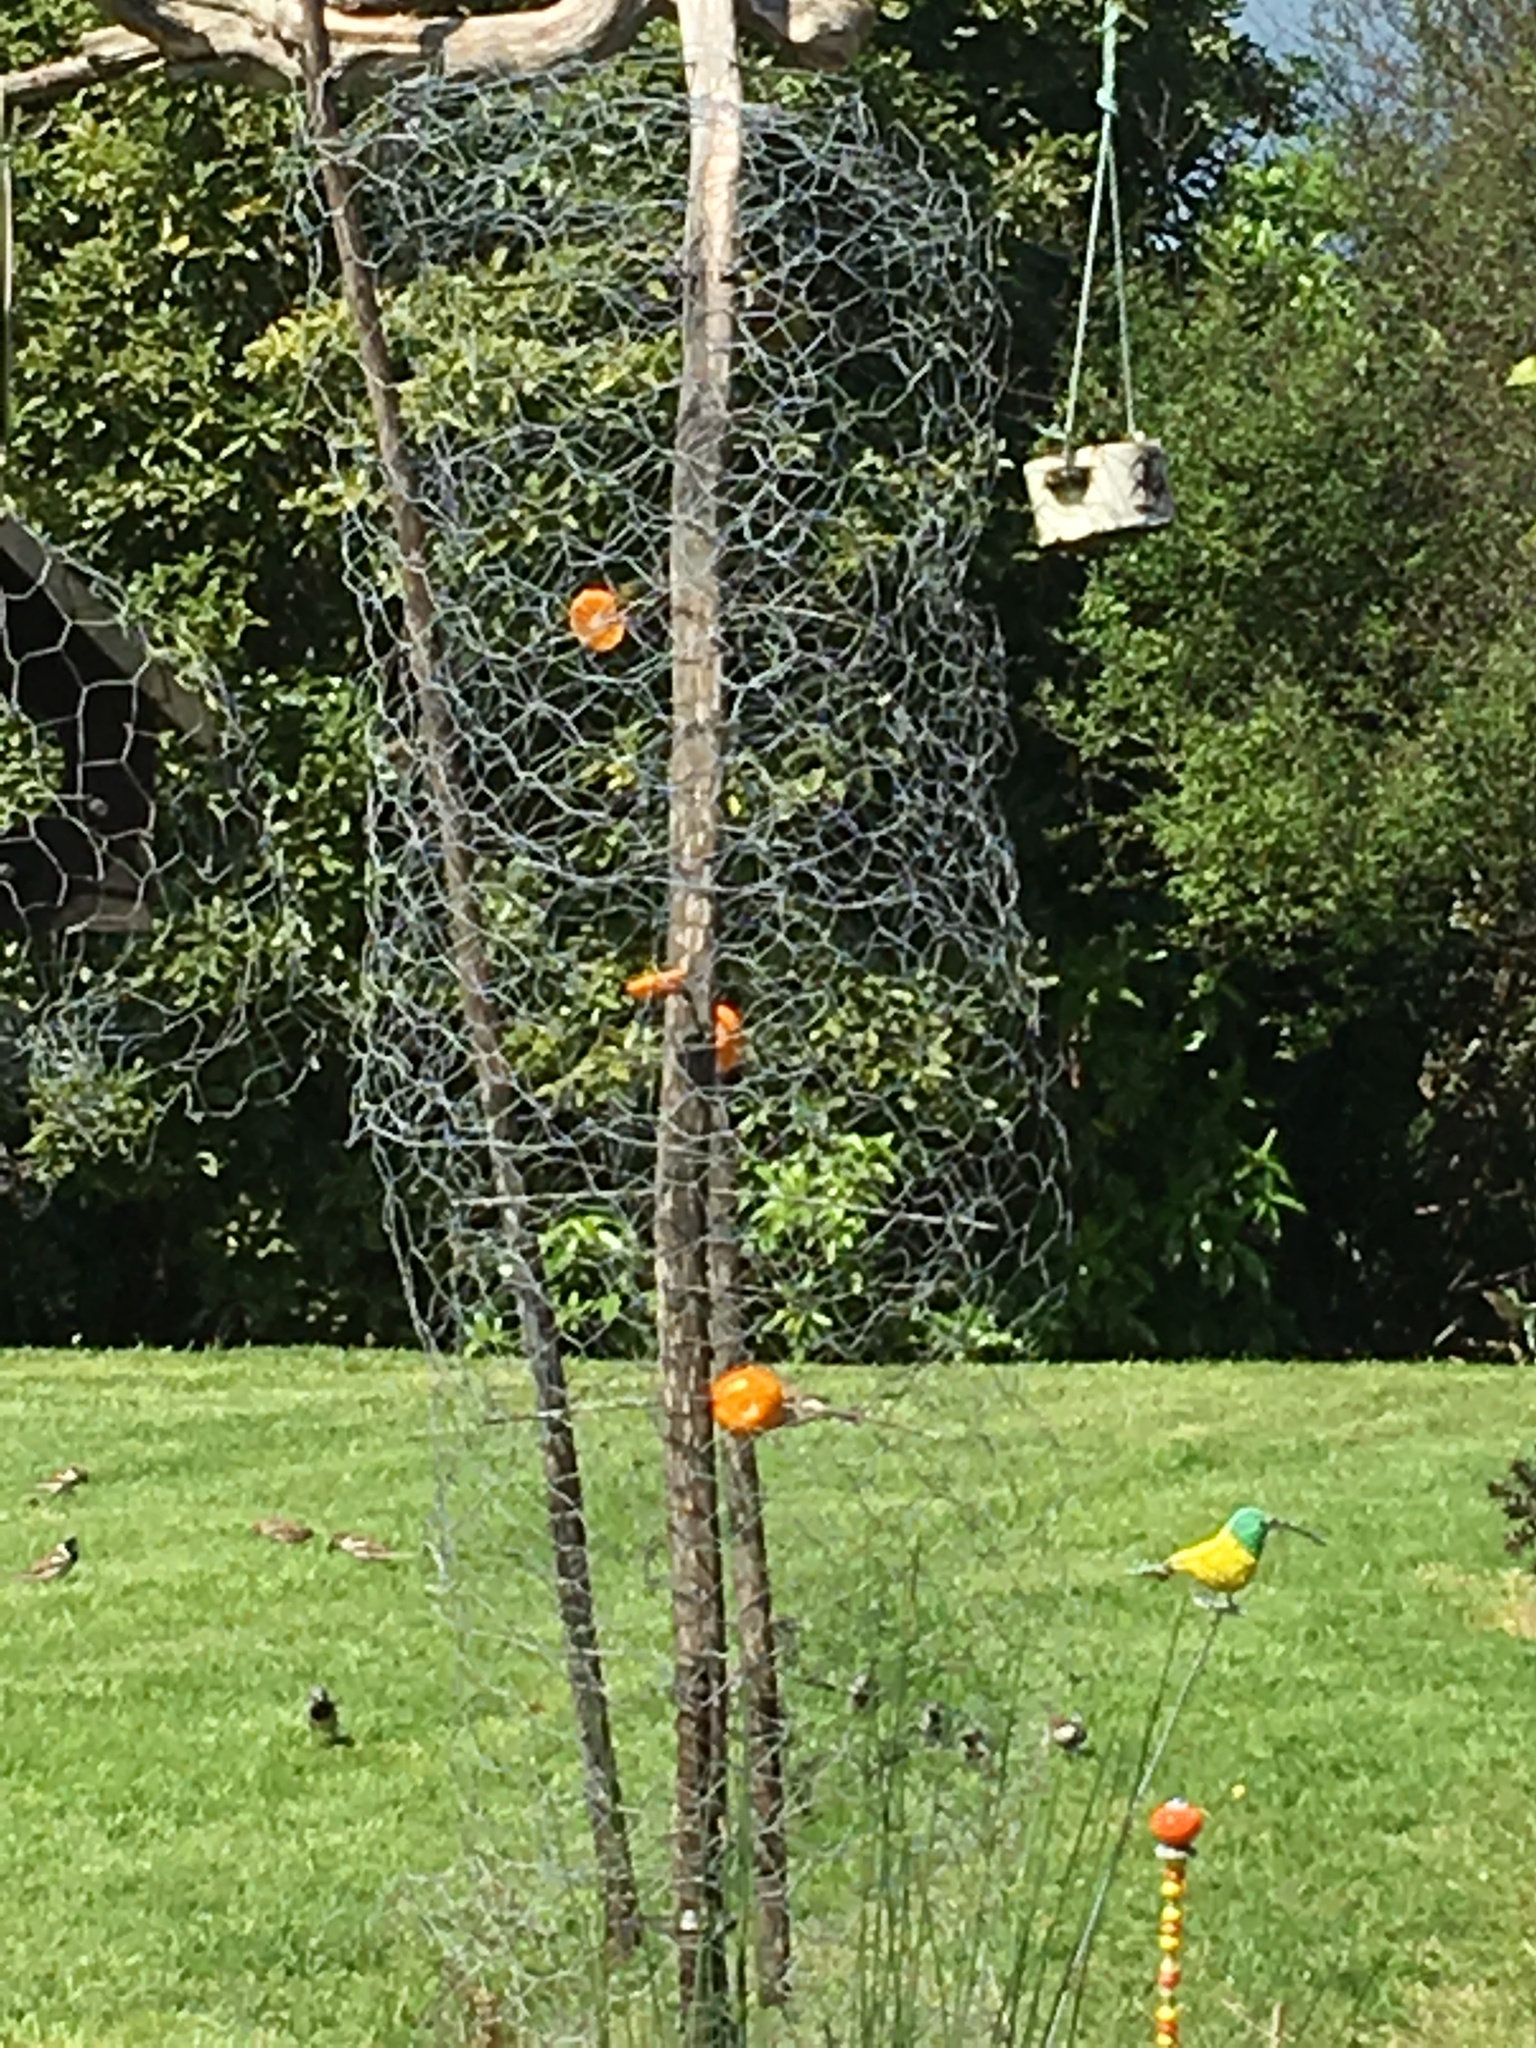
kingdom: Animalia
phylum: Chordata
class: Aves
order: Passeriformes
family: Zosteropidae
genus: Zosterops
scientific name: Zosterops lateralis
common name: Silvereye
